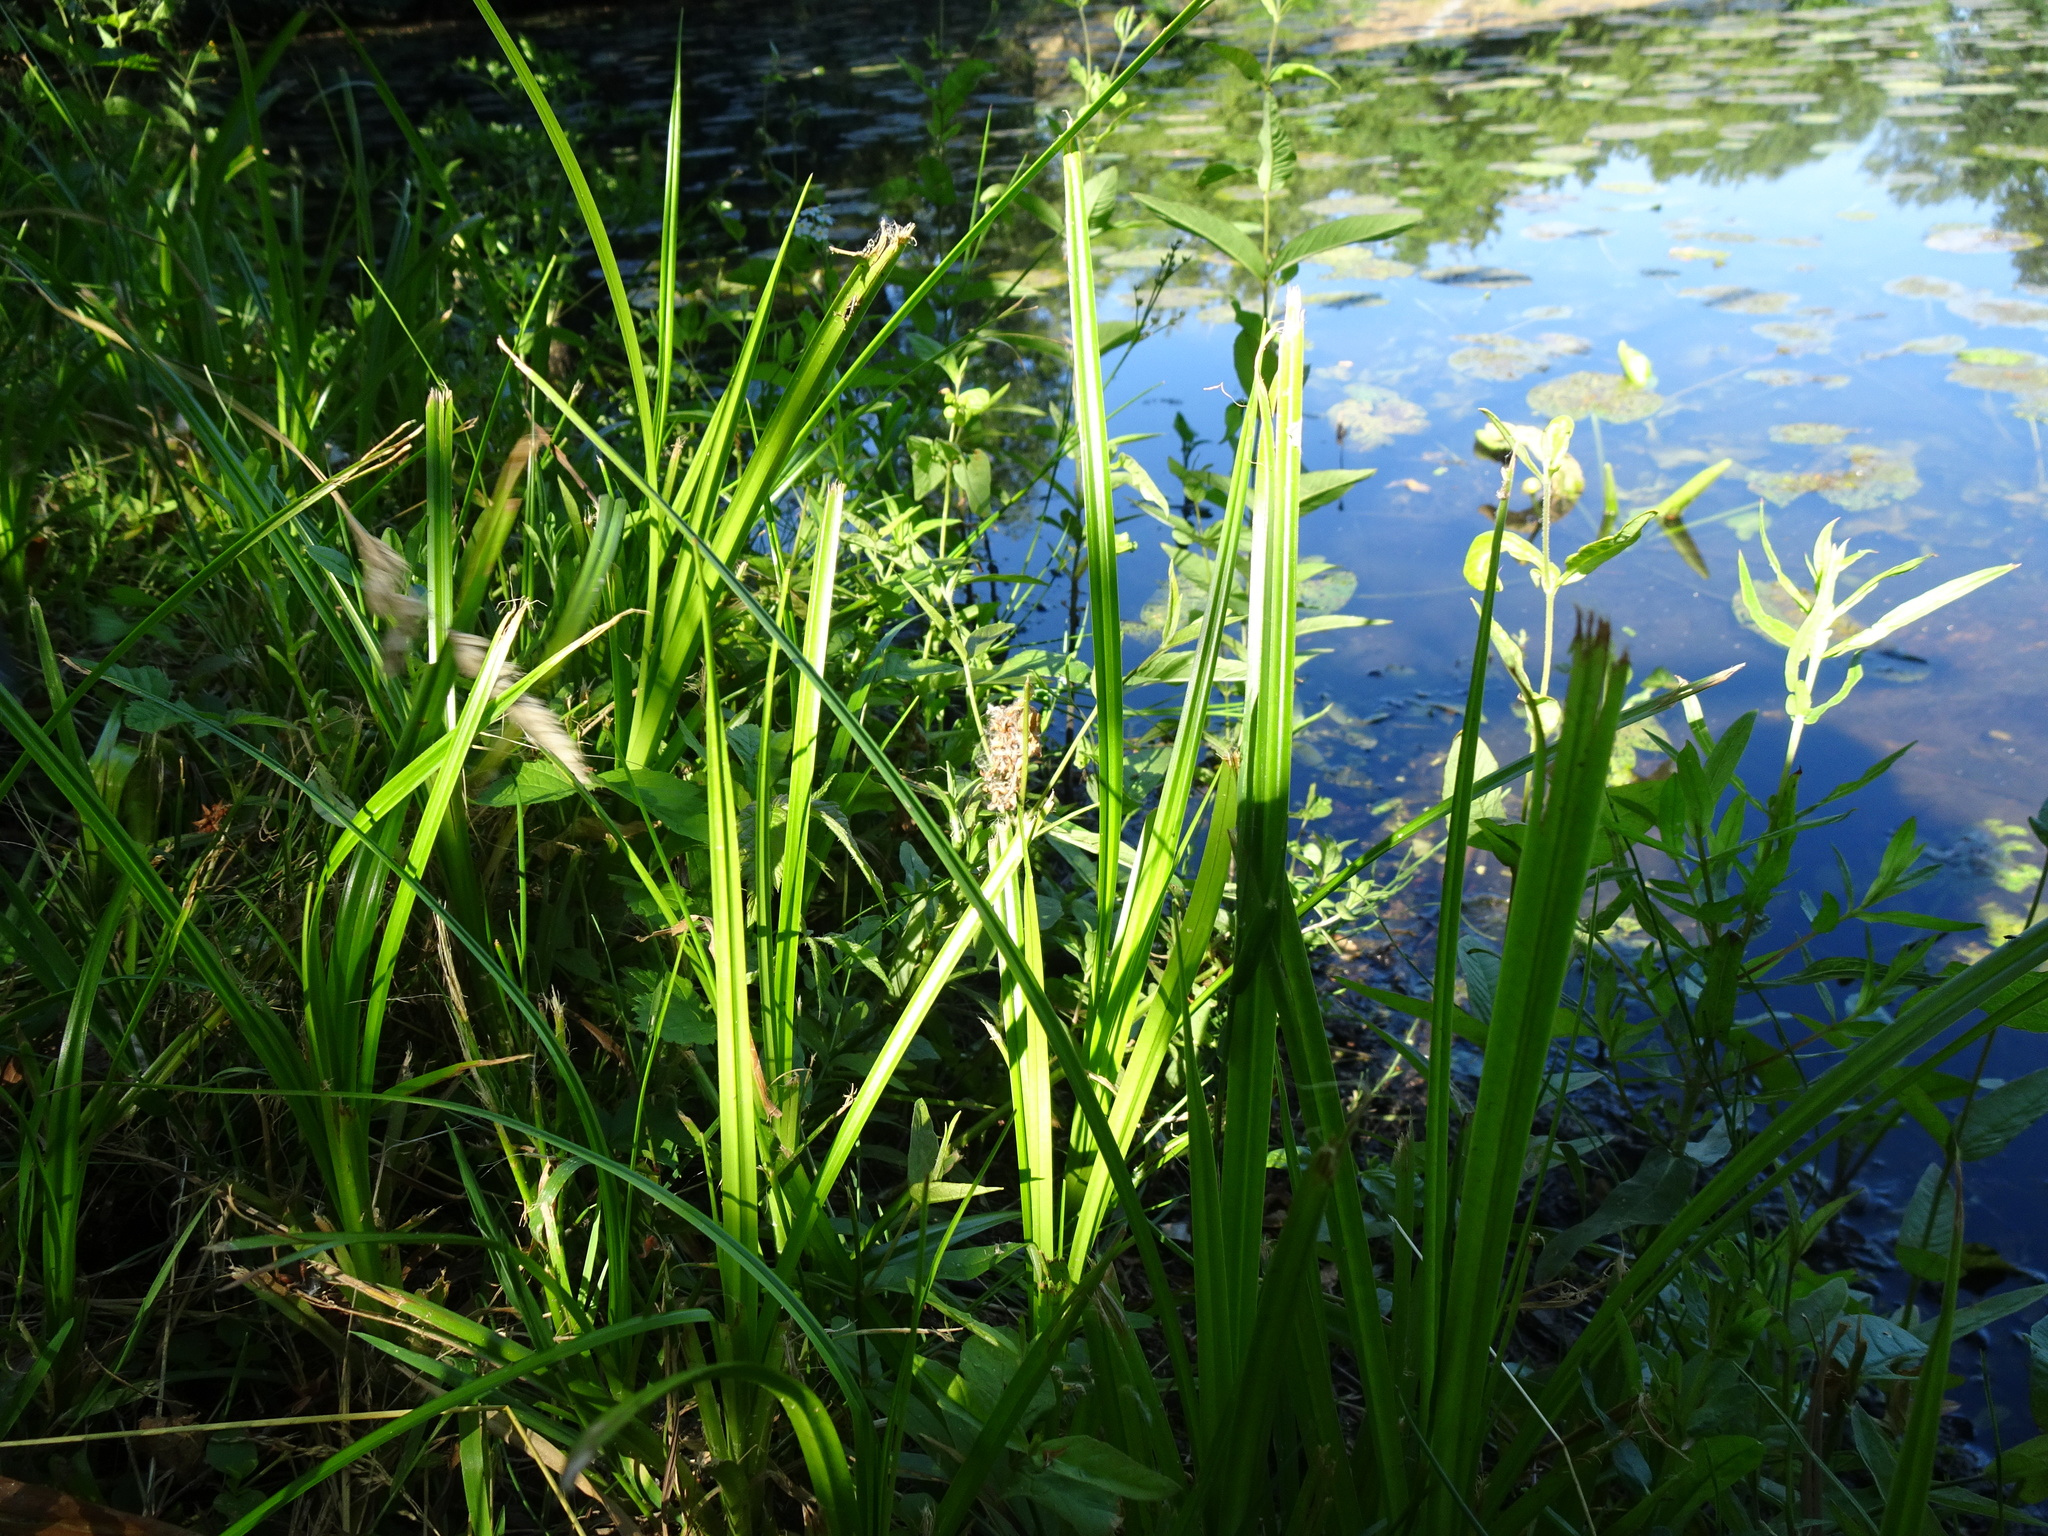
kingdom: Plantae
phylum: Tracheophyta
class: Liliopsida
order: Poales
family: Cyperaceae
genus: Scirpus
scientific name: Scirpus sylvaticus
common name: Wood club-rush
